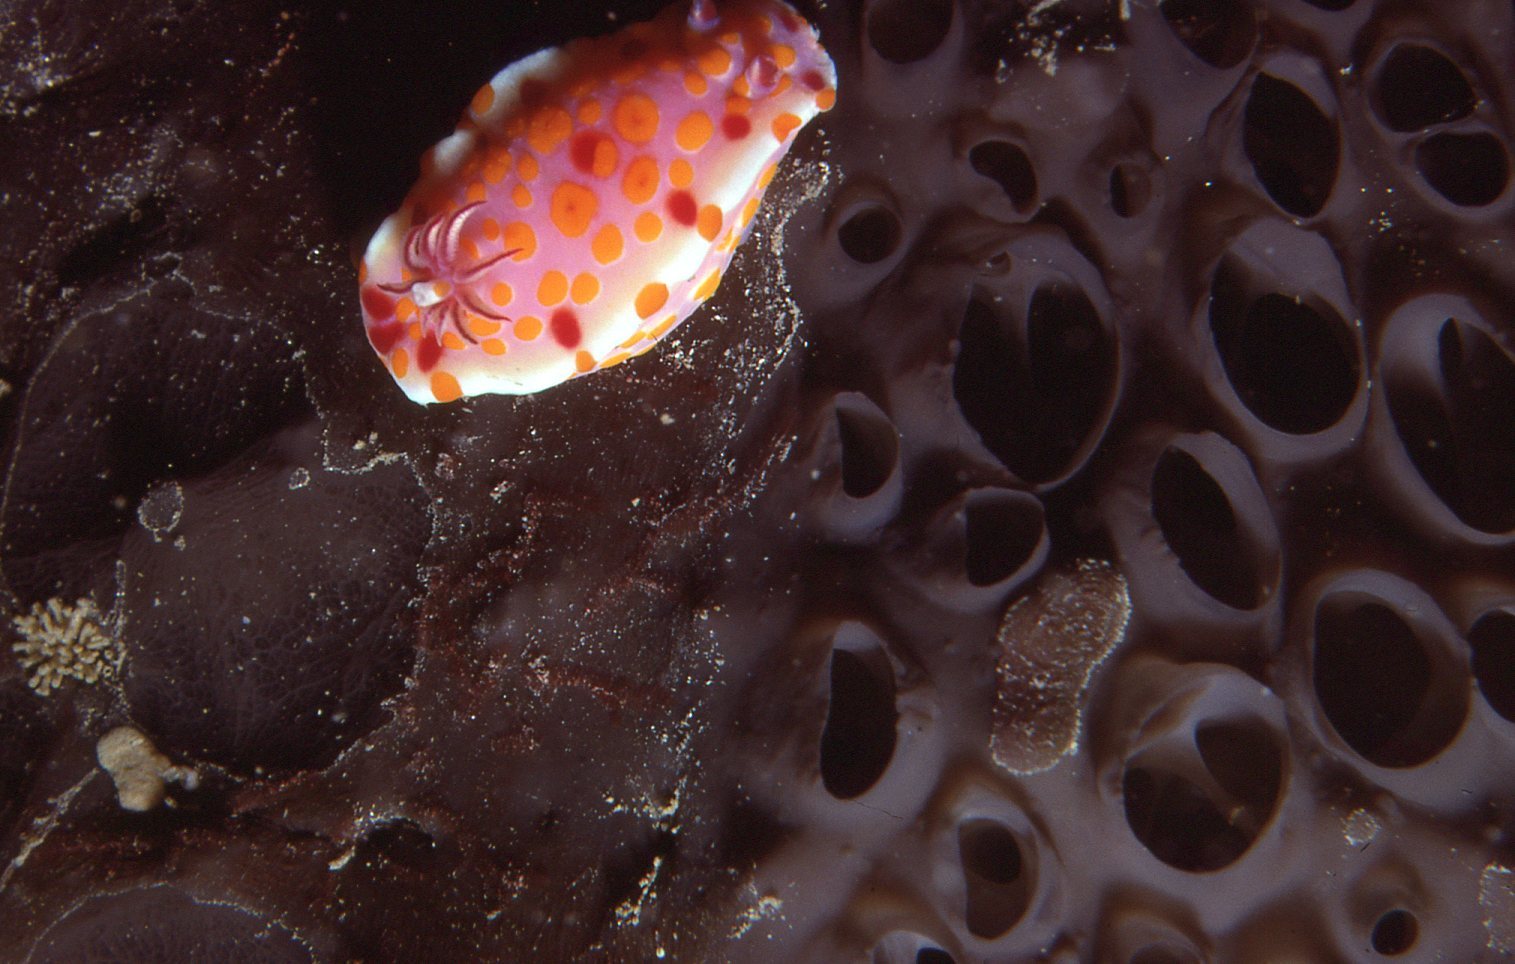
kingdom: Animalia
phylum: Mollusca
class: Gastropoda
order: Nudibranchia
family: Chromodorididae
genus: Ceratosoma
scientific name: Ceratosoma amoenum
